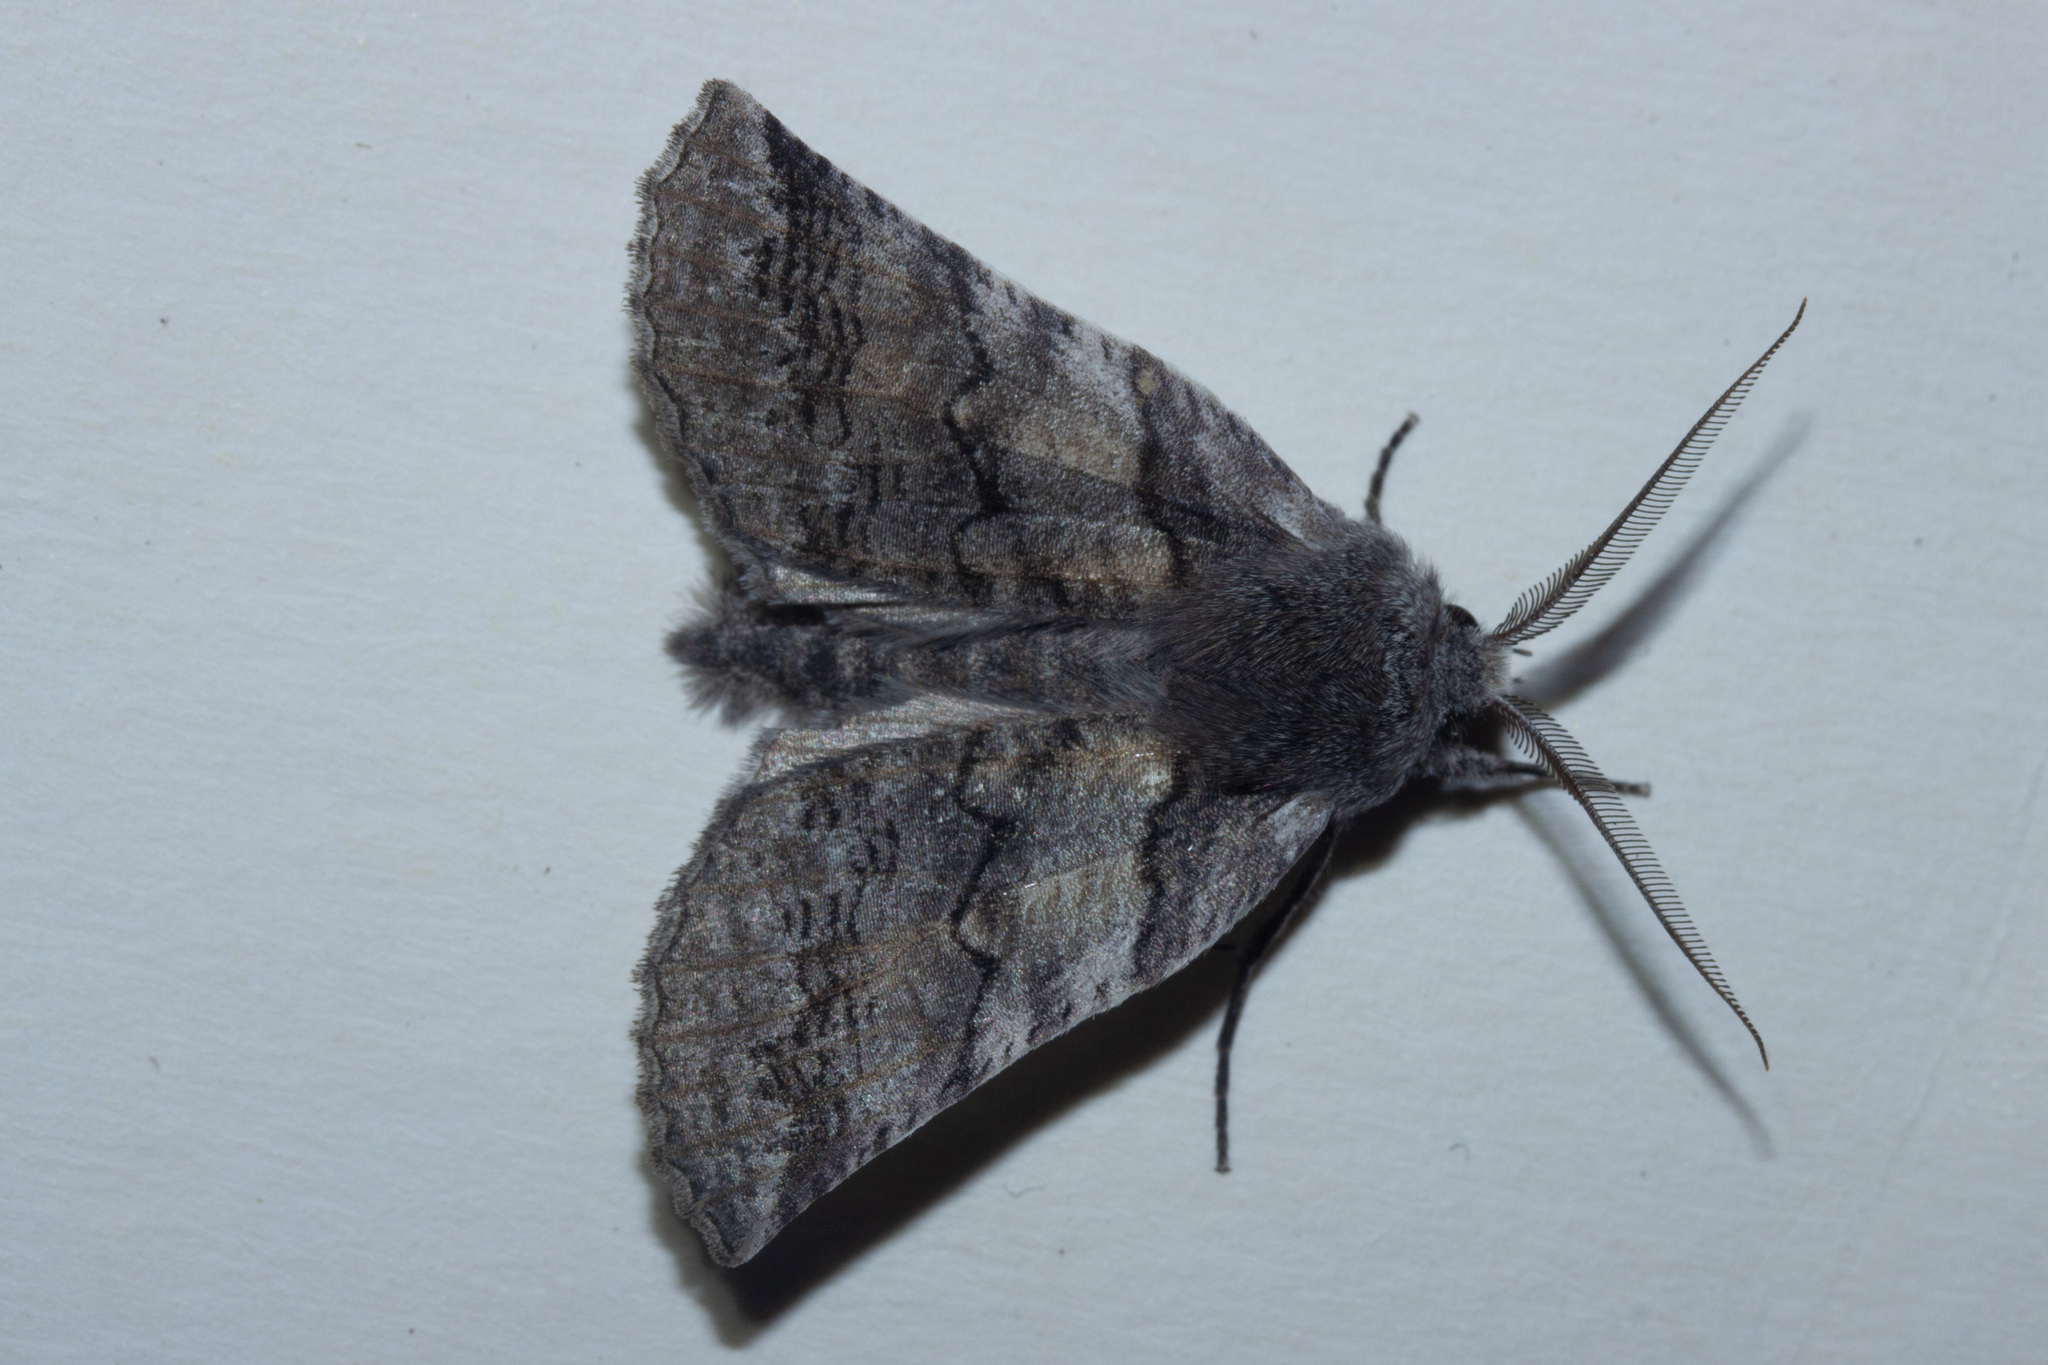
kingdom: Animalia
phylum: Arthropoda
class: Insecta
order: Lepidoptera
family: Geometridae
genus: Declana
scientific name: Declana
